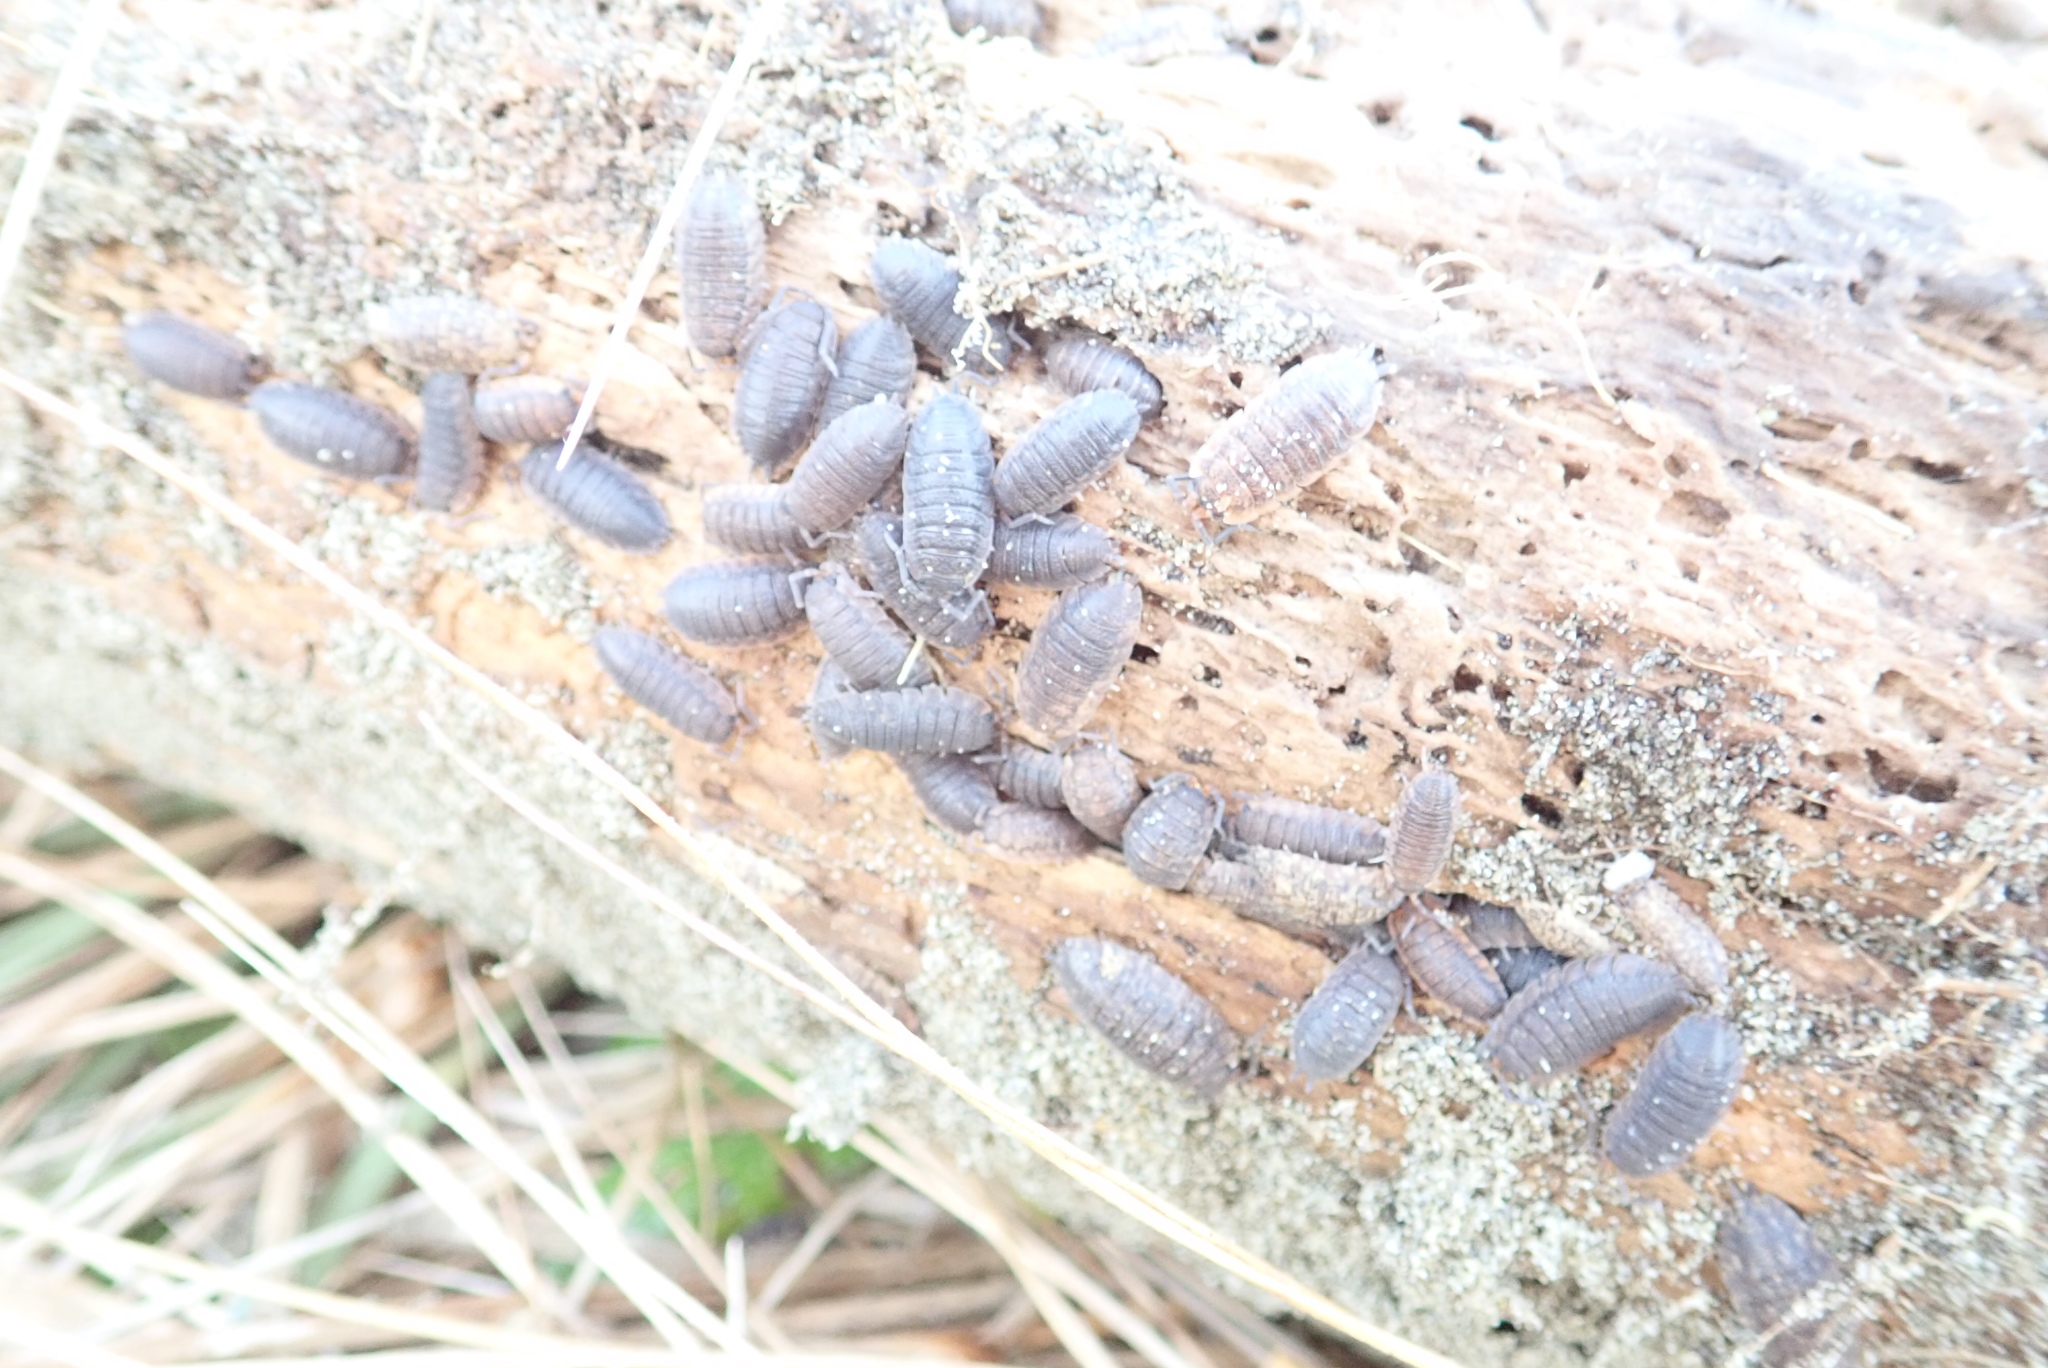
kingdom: Animalia
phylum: Arthropoda
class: Malacostraca
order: Isopoda
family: Porcellionidae
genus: Porcellio
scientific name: Porcellio scaber
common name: Common rough woodlouse
